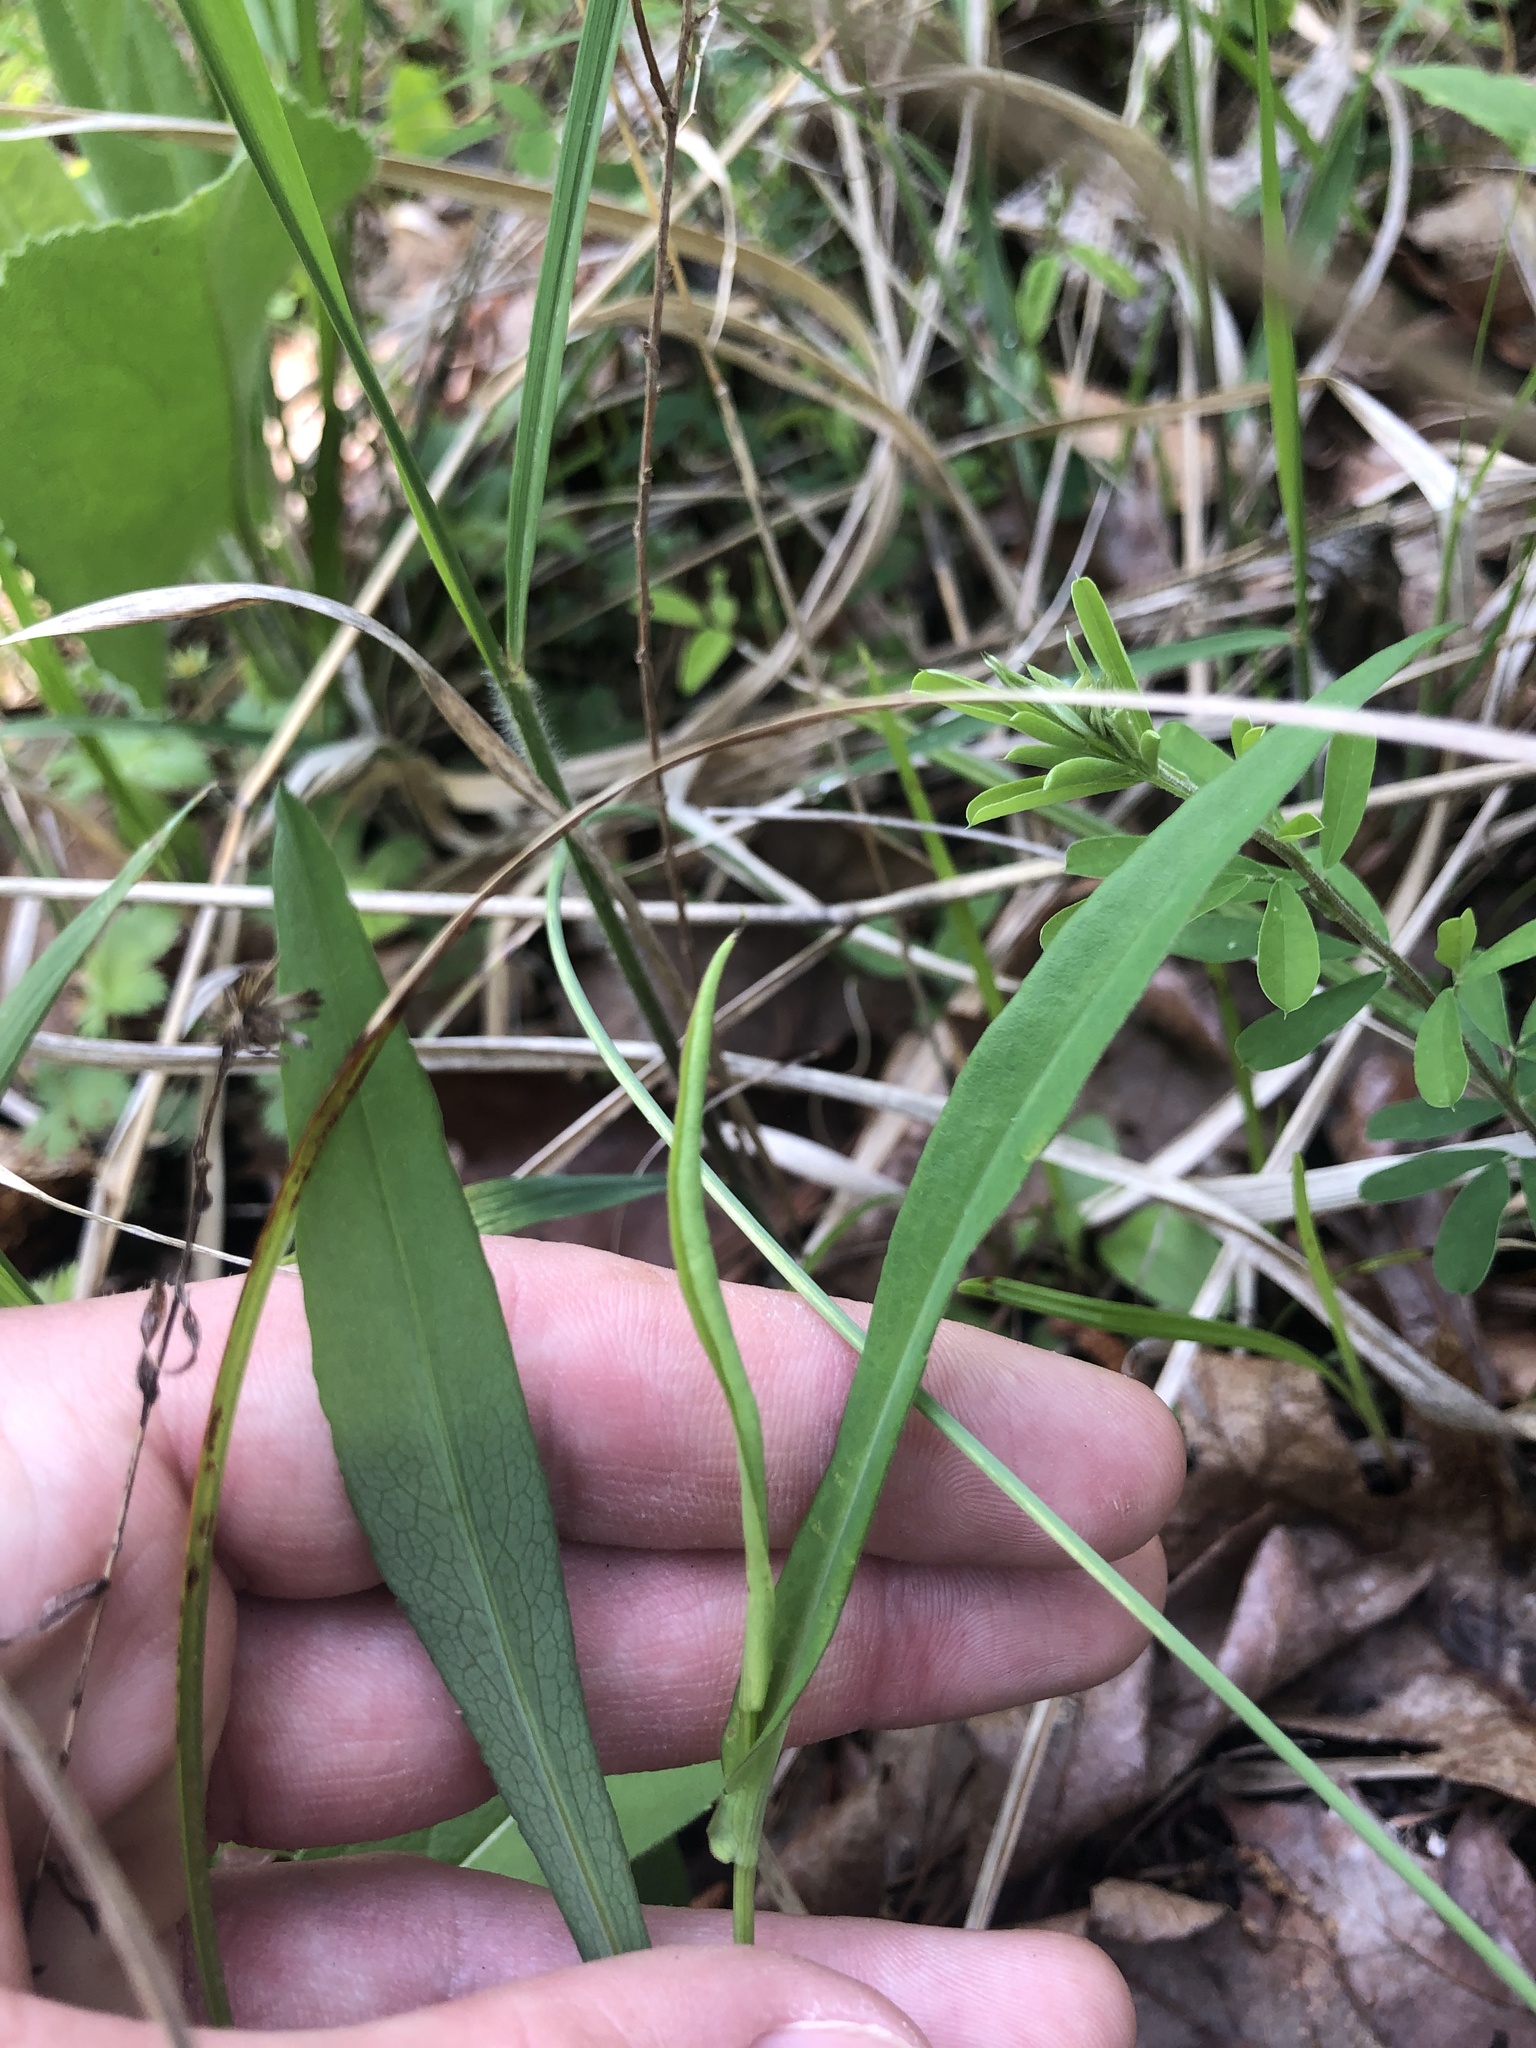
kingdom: Plantae
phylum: Tracheophyta
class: Magnoliopsida
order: Asterales
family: Asteraceae
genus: Symphyotrichum
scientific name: Symphyotrichum laeve
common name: Glaucous aster
